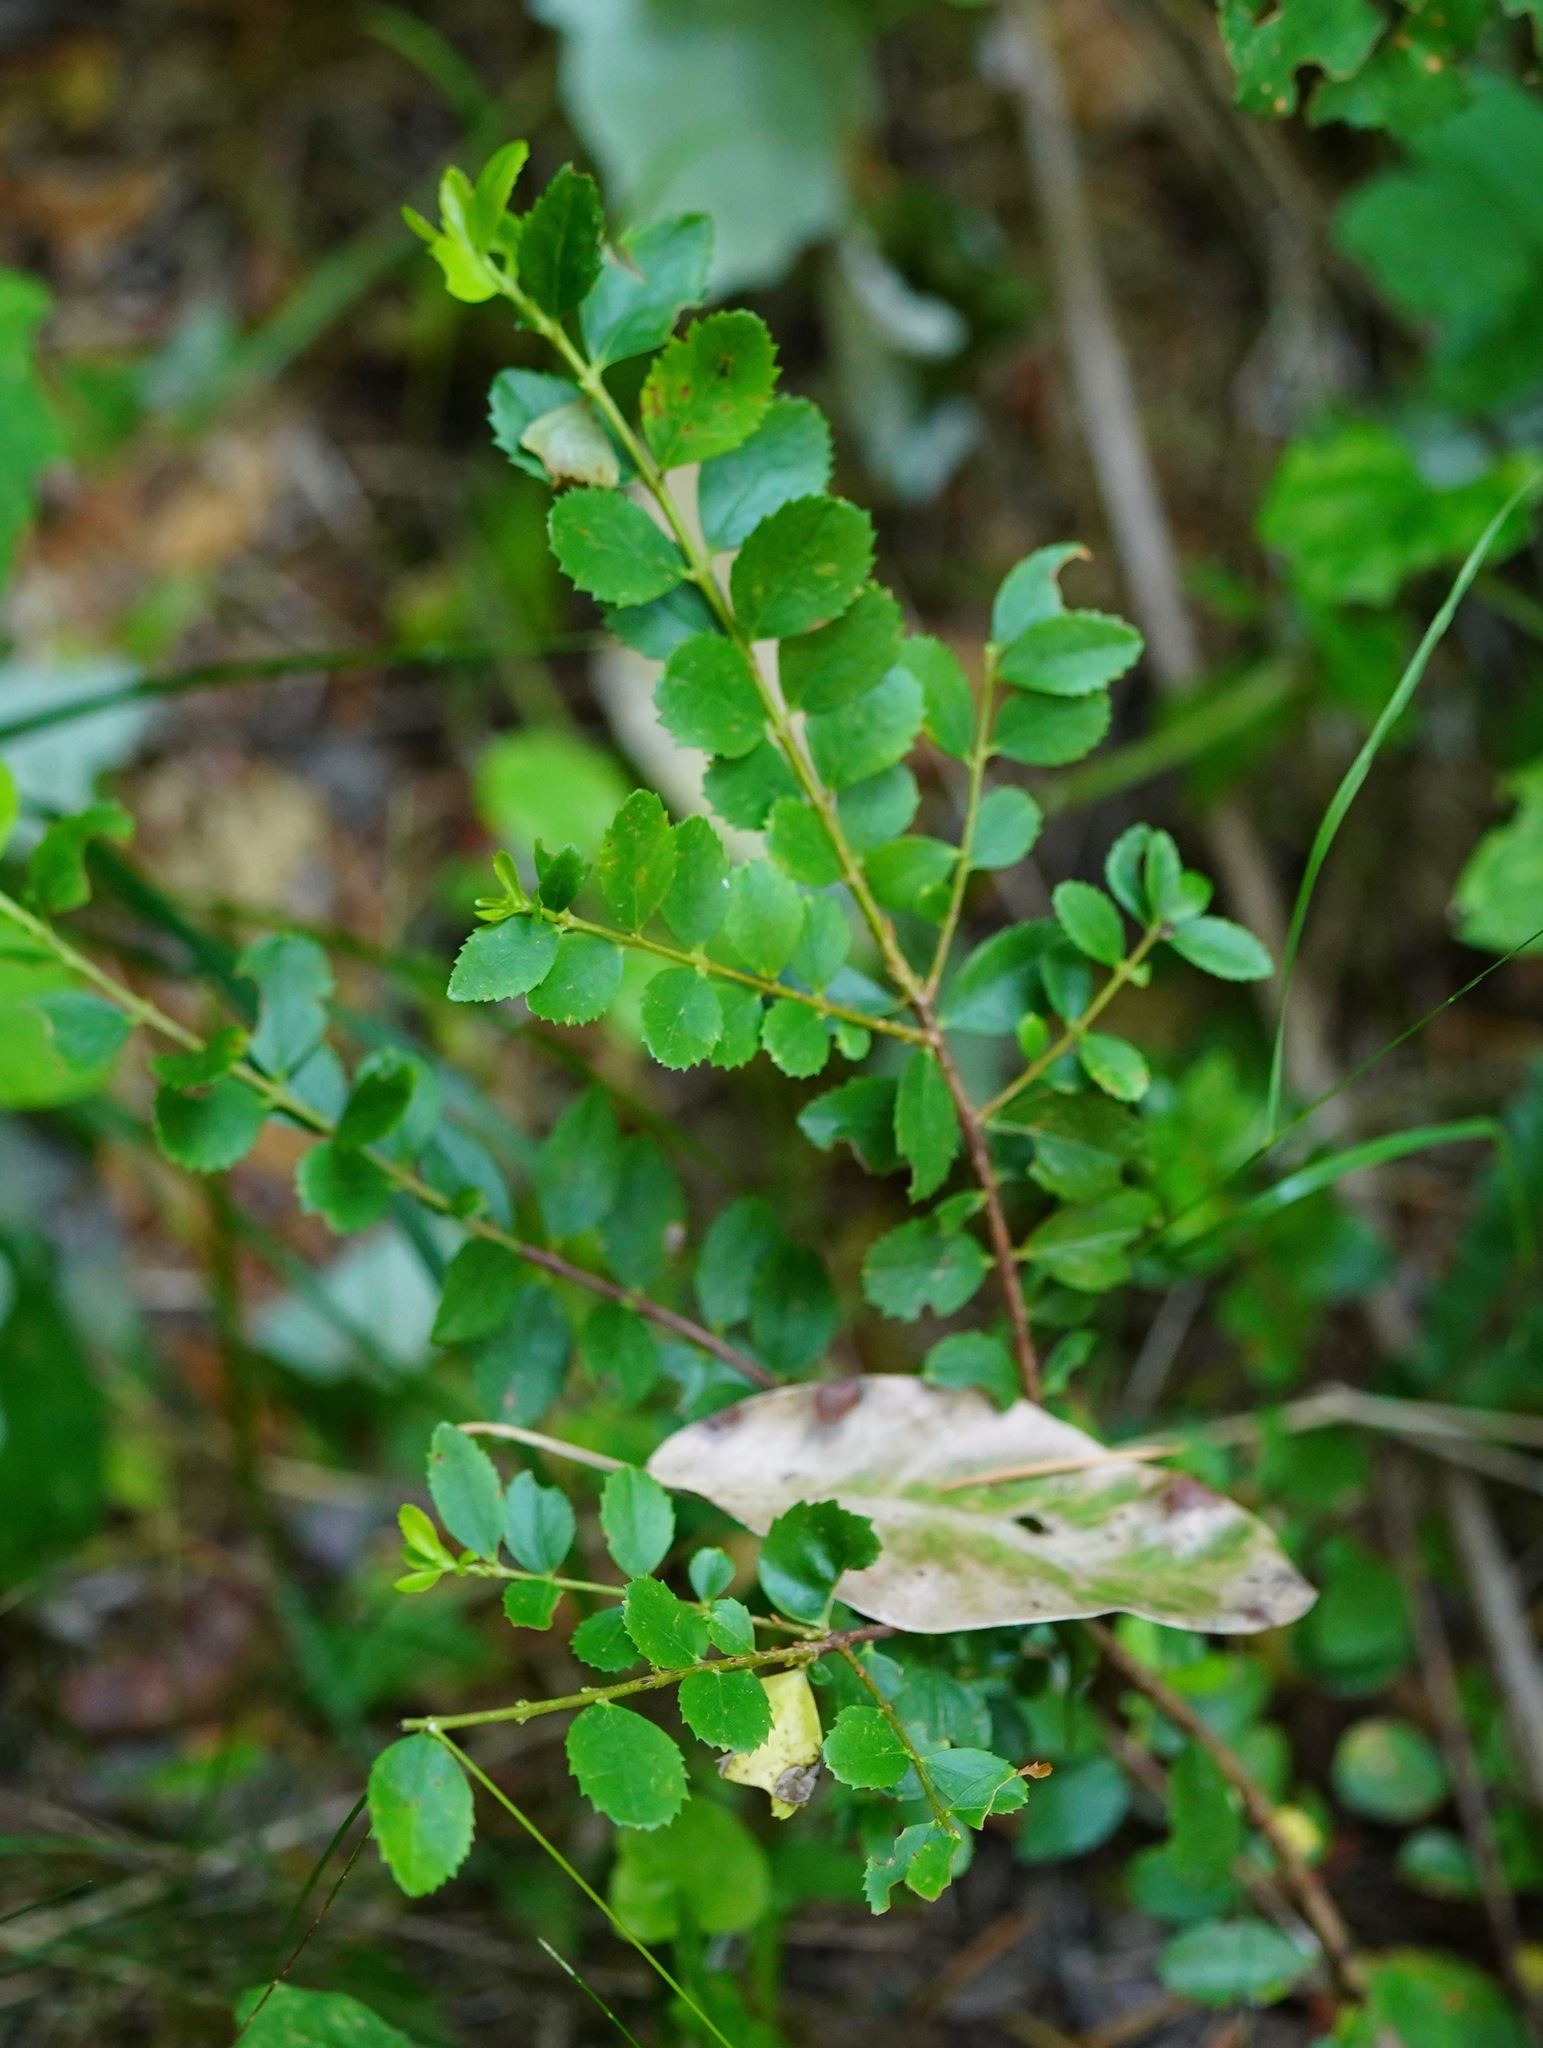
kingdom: Plantae
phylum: Tracheophyta
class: Magnoliopsida
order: Celastrales
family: Celastraceae
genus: Paxistima
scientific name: Paxistima myrsinites
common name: Mountain-lover
